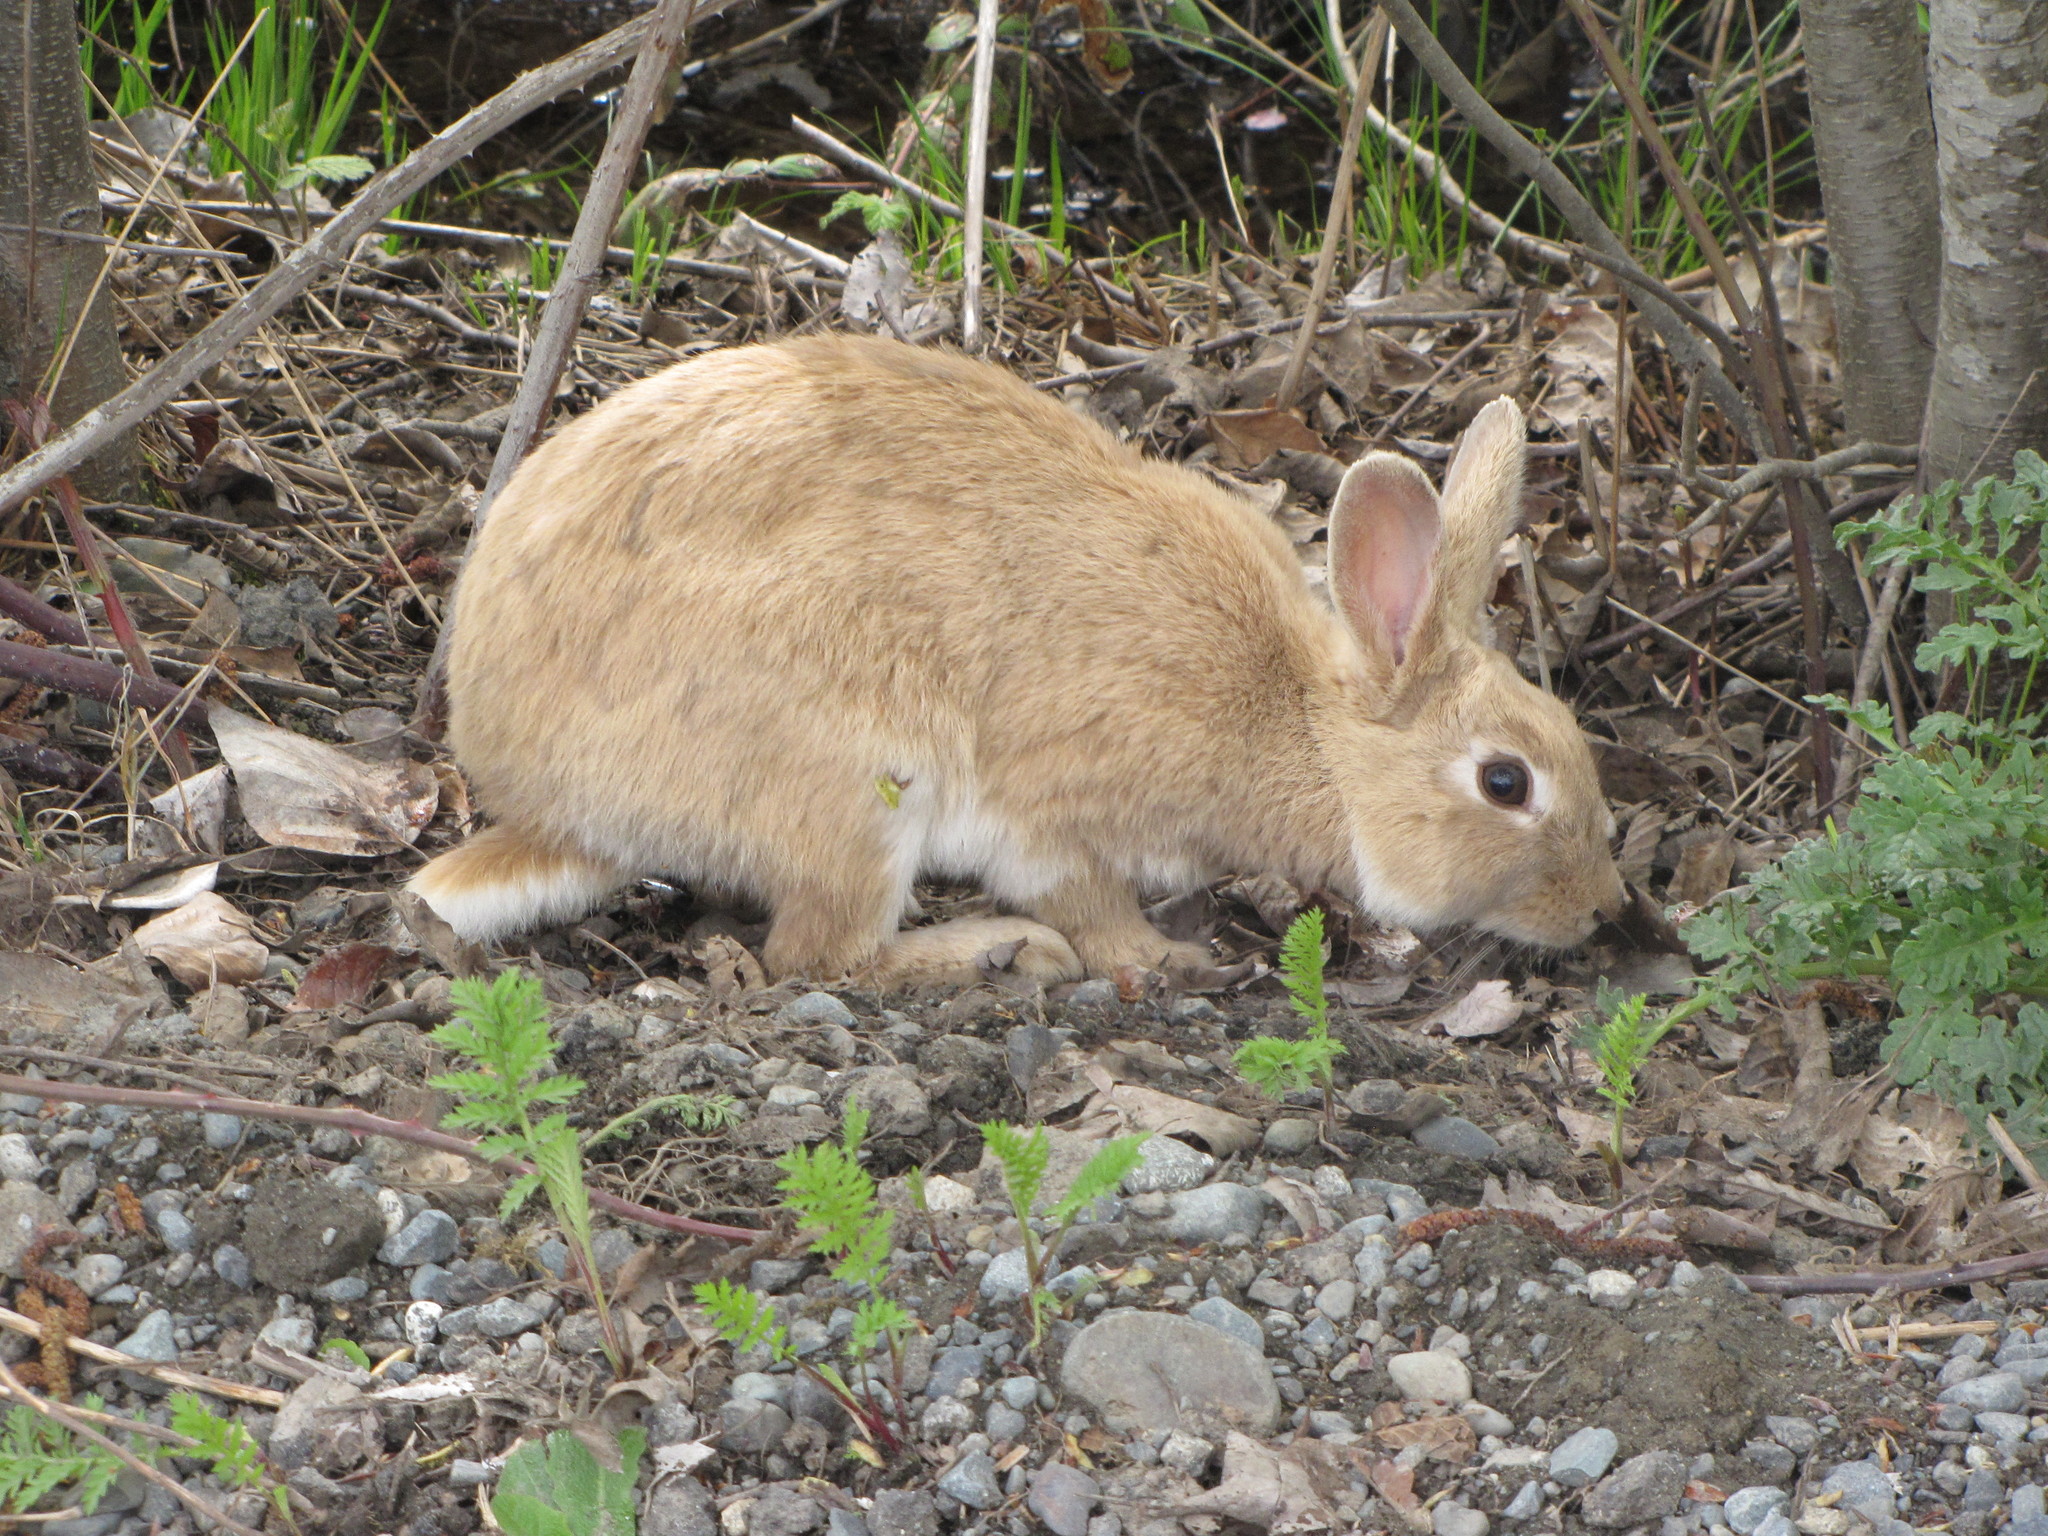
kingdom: Animalia
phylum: Chordata
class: Mammalia
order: Lagomorpha
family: Leporidae
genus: Oryctolagus
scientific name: Oryctolagus cuniculus
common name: European rabbit
